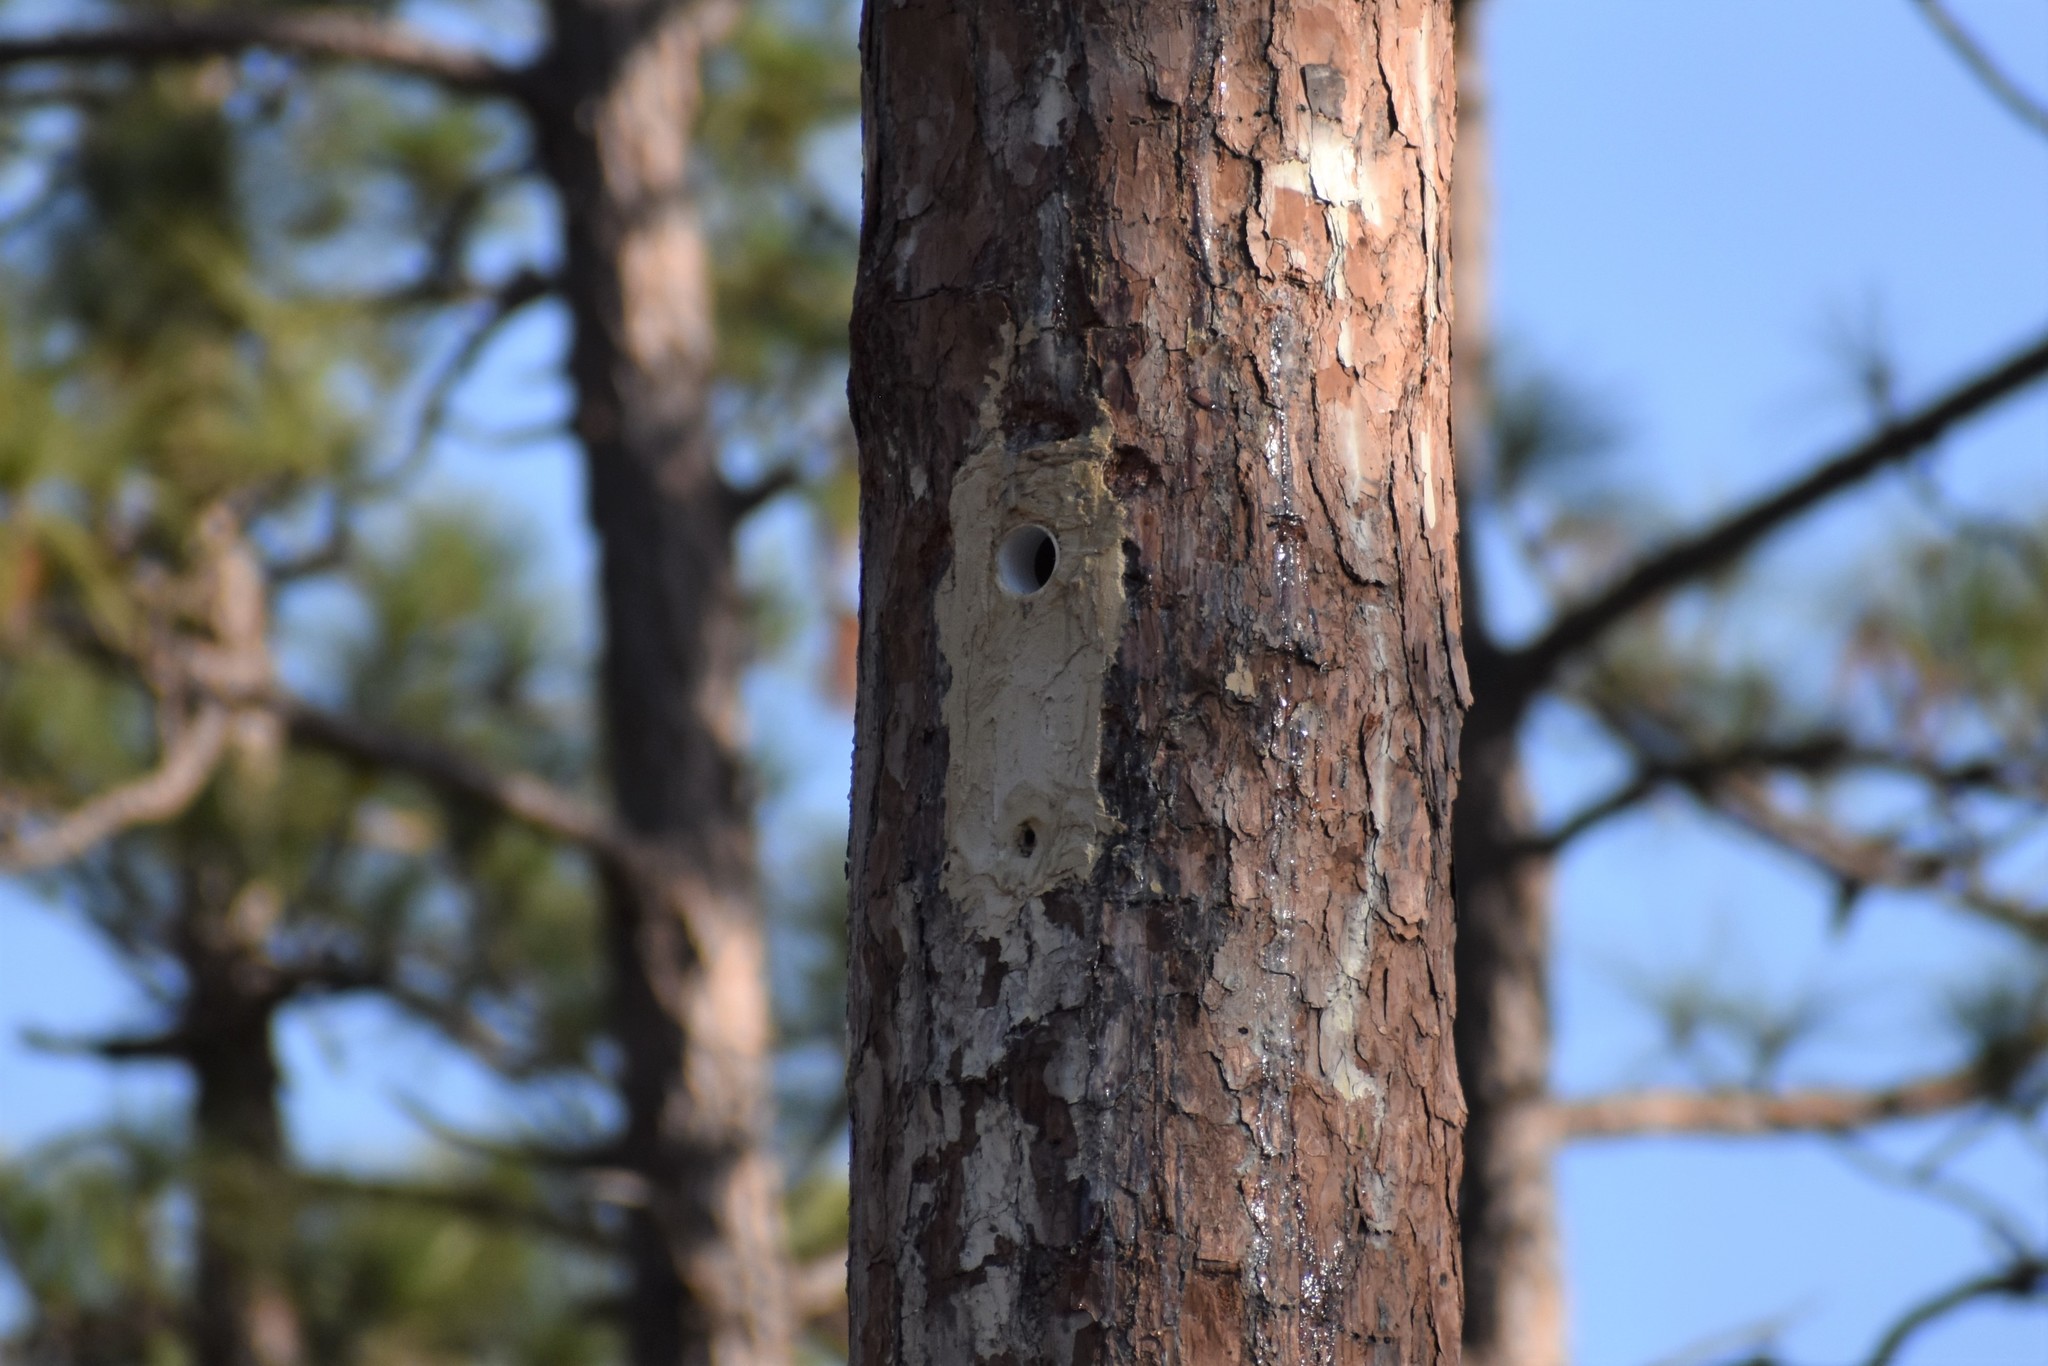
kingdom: Animalia
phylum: Chordata
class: Aves
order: Piciformes
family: Picidae
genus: Leuconotopicus
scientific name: Leuconotopicus borealis
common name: Red-cockaded woodpecker
